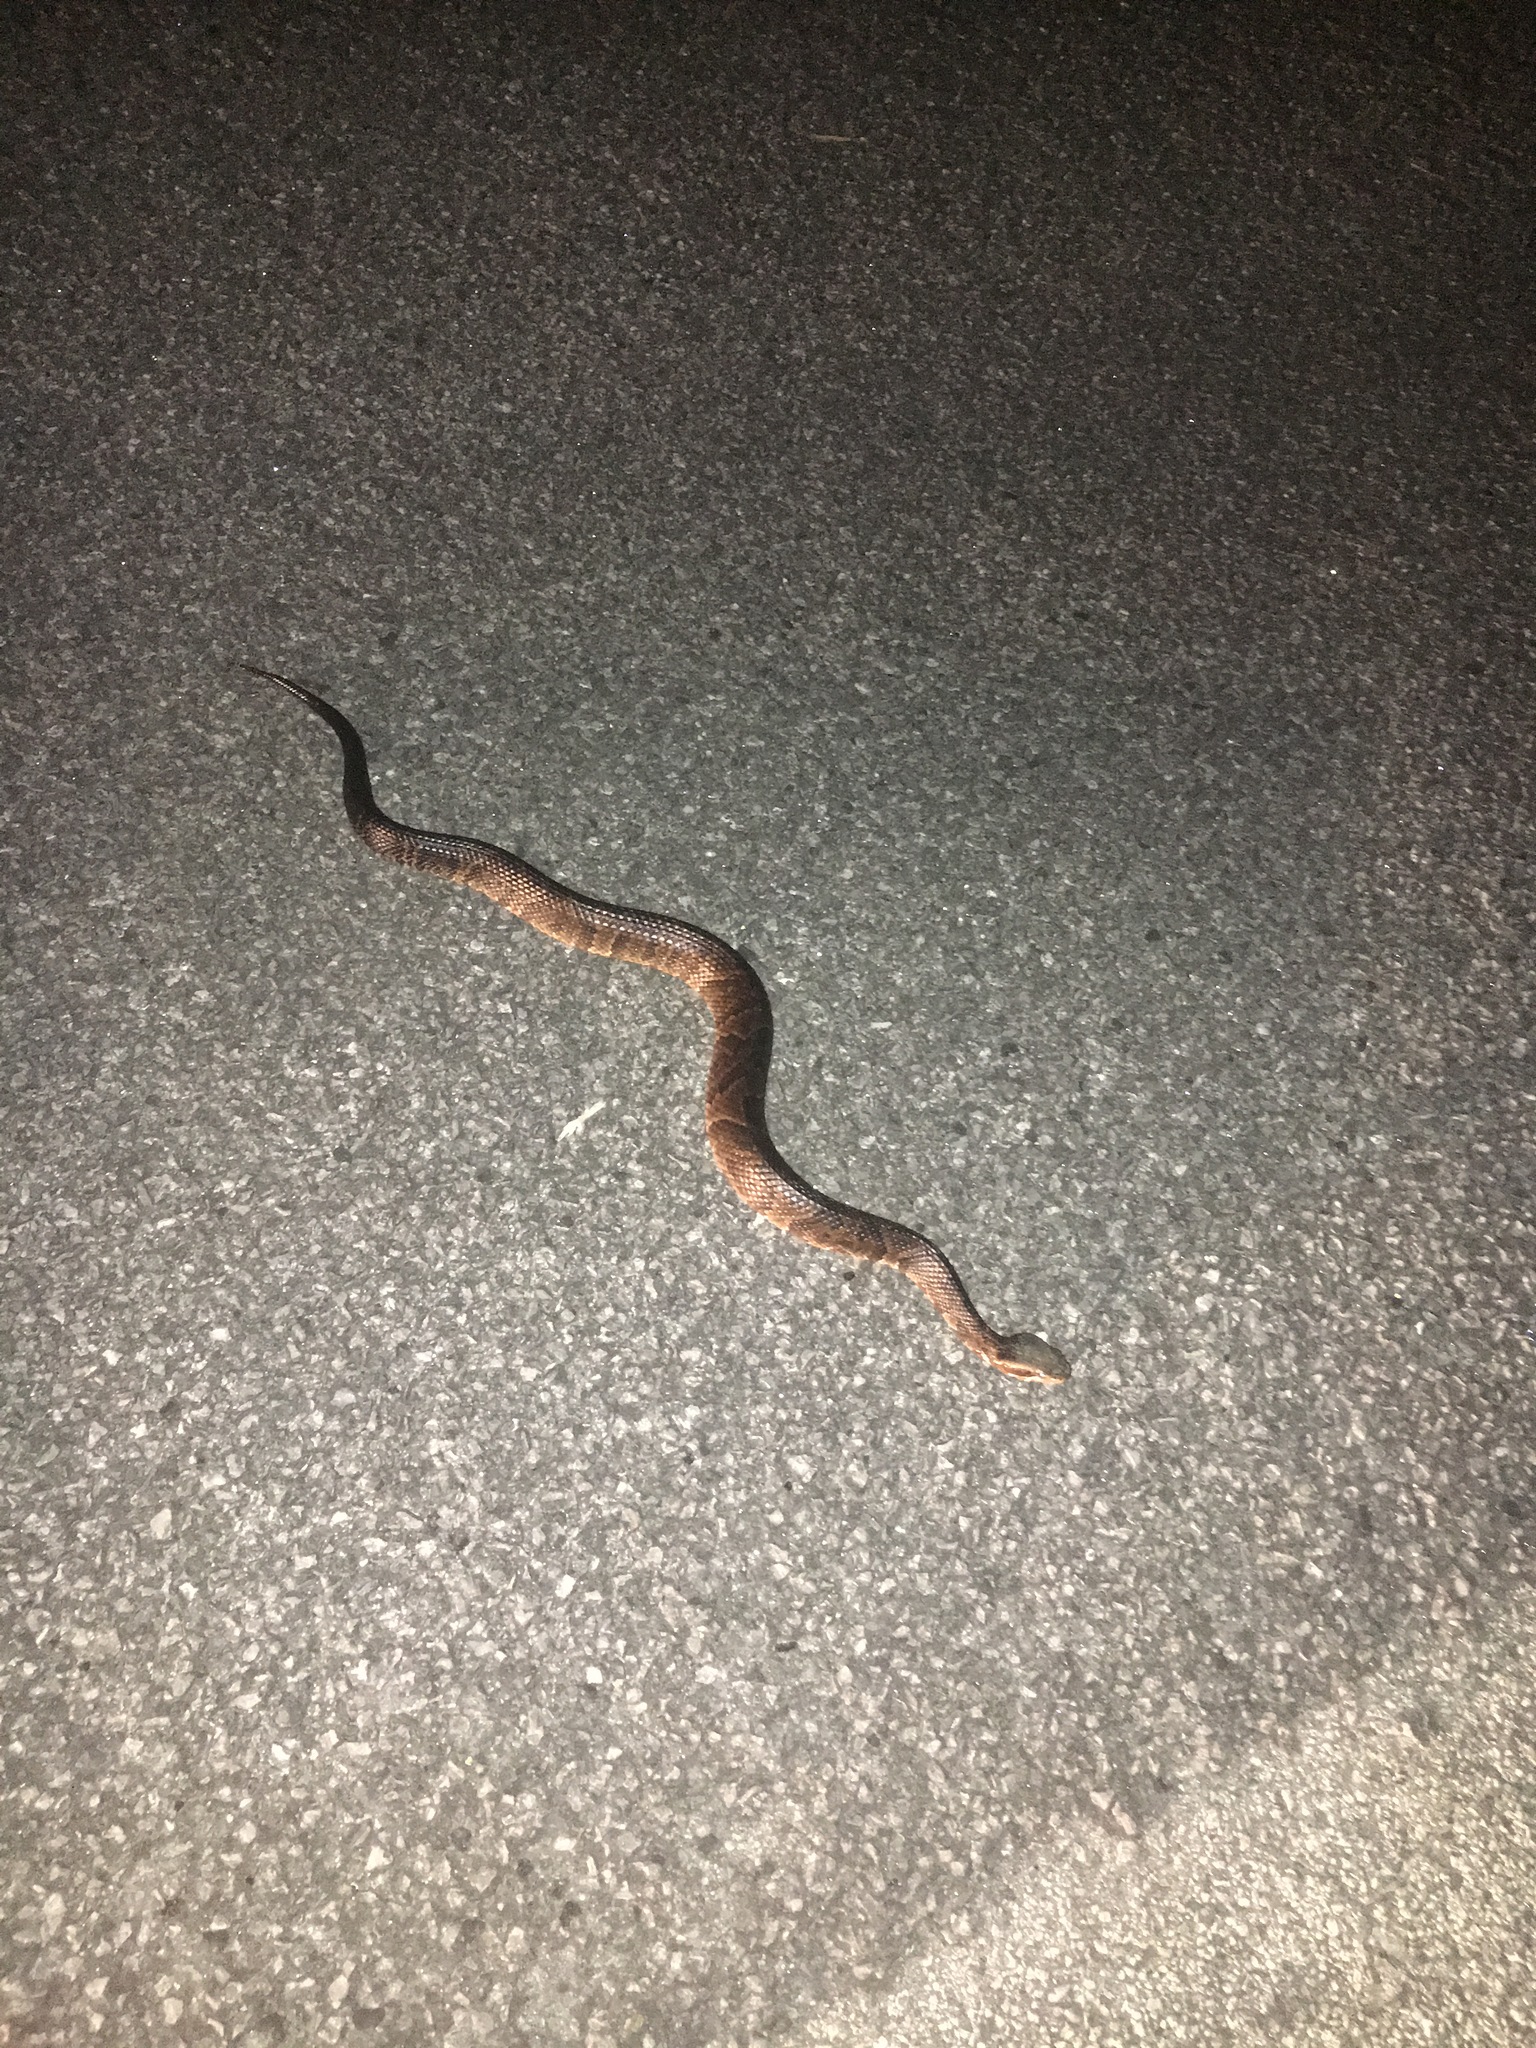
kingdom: Animalia
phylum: Chordata
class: Squamata
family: Viperidae
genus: Agkistrodon
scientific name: Agkistrodon conanti
